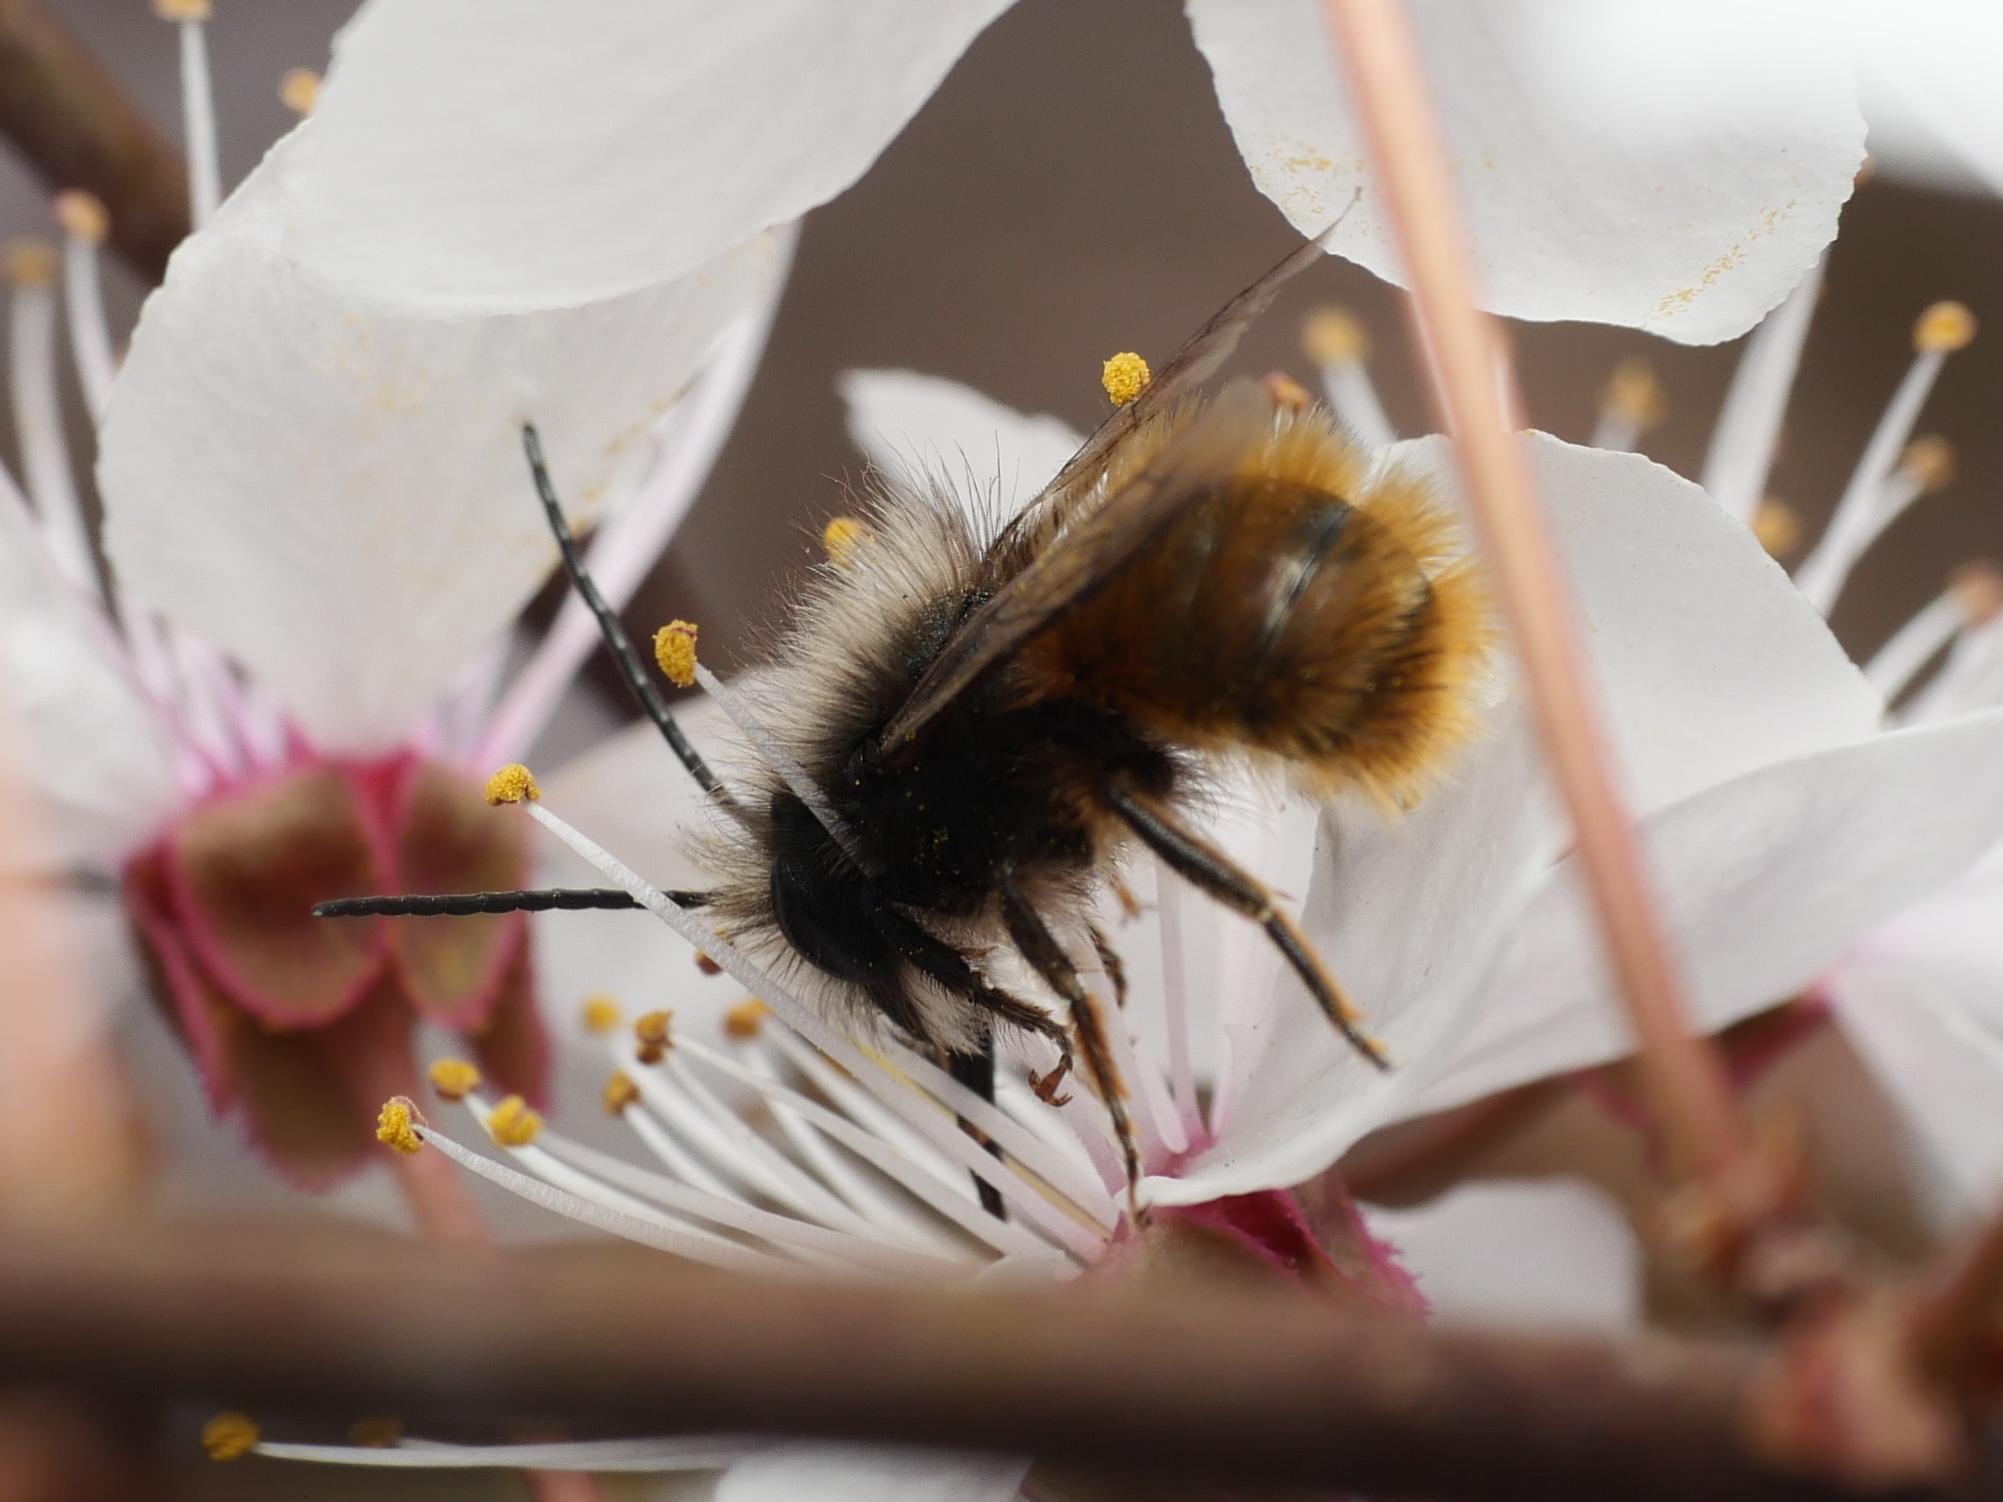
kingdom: Animalia
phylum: Arthropoda
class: Insecta
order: Hymenoptera
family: Megachilidae
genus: Osmia
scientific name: Osmia cornuta
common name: Mason bee
